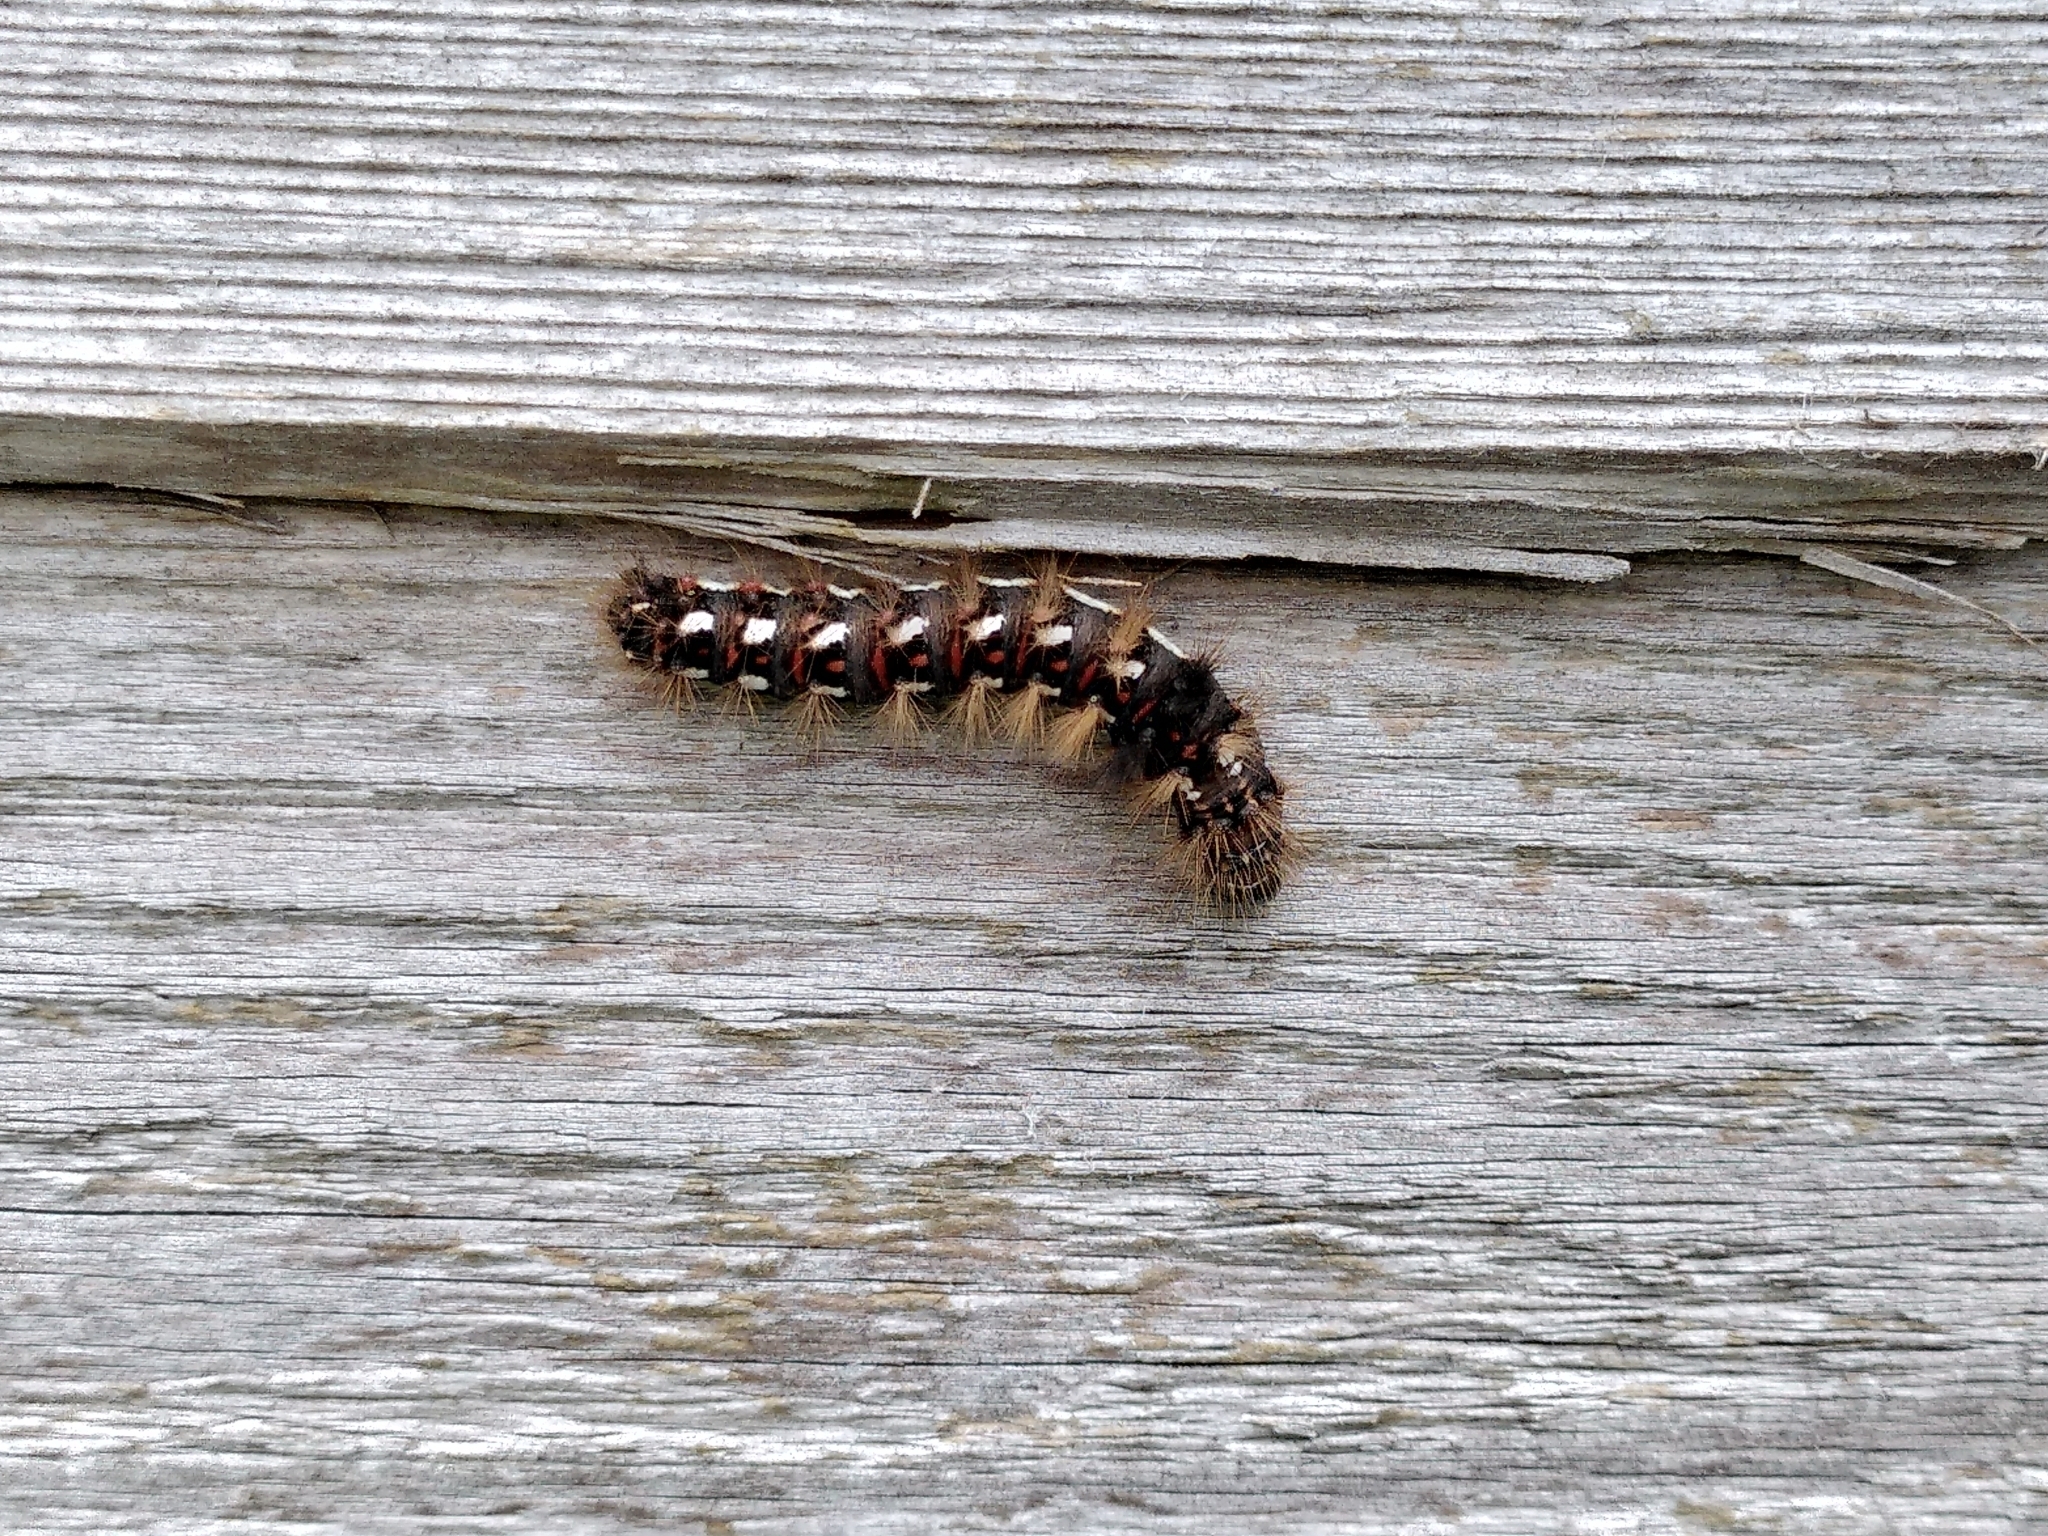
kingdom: Animalia
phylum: Arthropoda
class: Insecta
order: Lepidoptera
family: Noctuidae
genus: Acronicta
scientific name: Acronicta rumicis
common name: Knot grass
